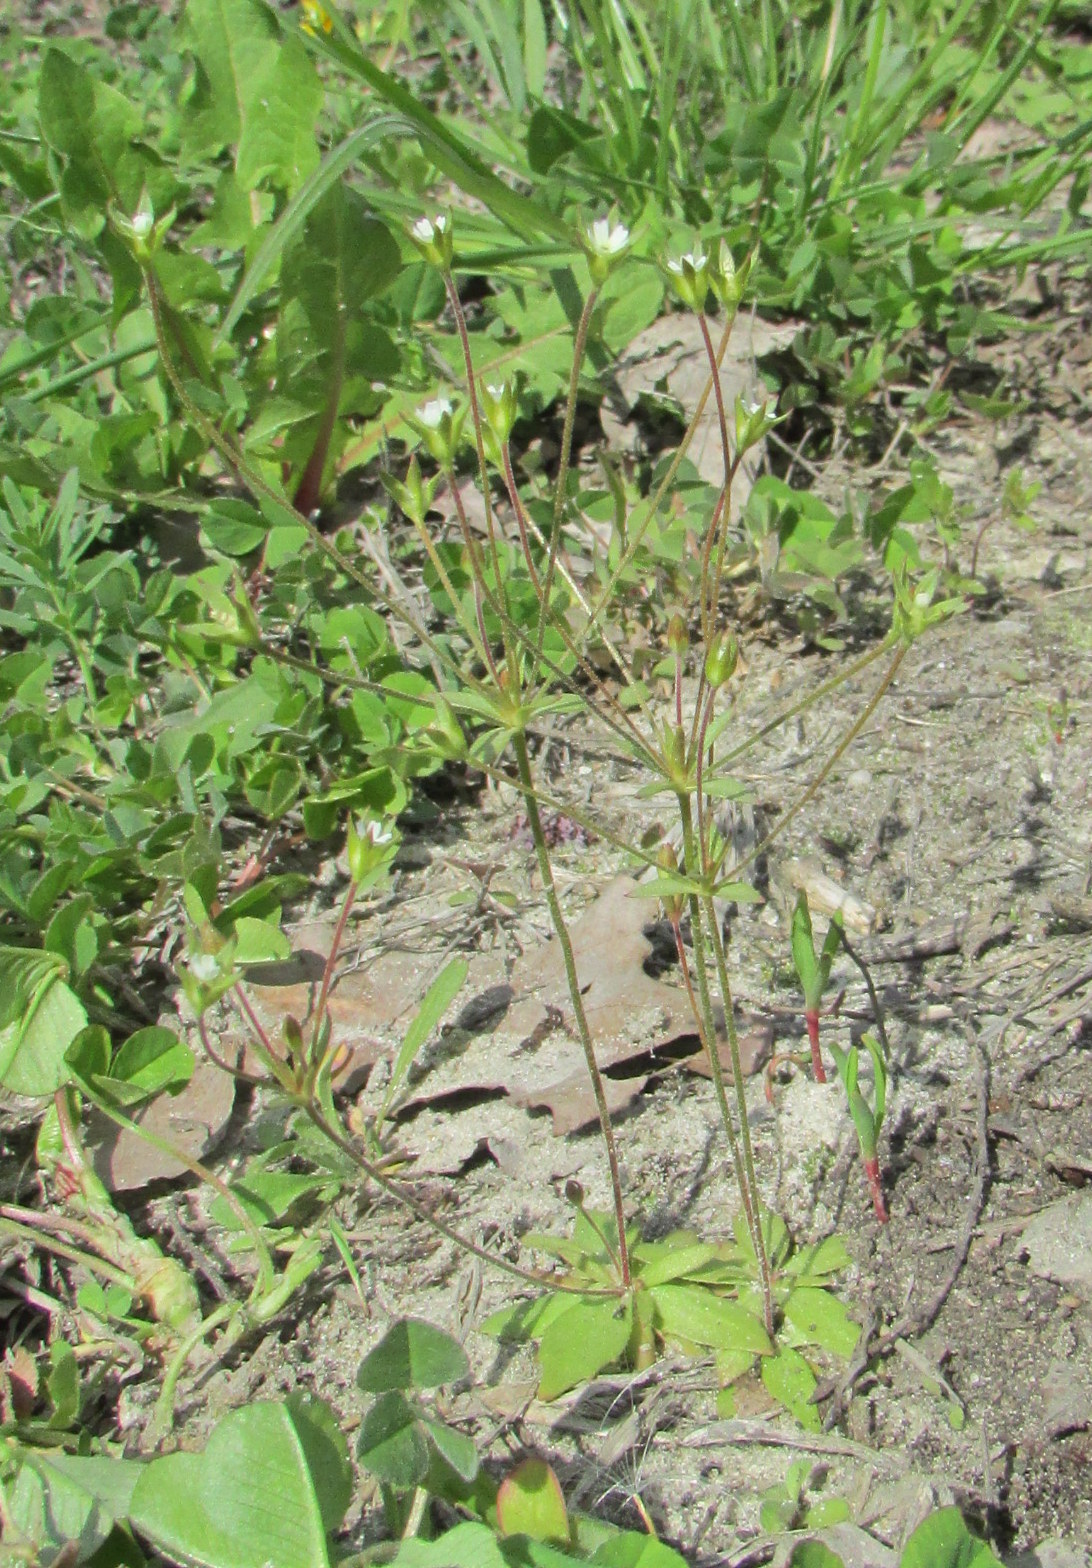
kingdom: Plantae
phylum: Tracheophyta
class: Magnoliopsida
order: Ericales
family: Primulaceae
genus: Androsace
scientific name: Androsace elongata
